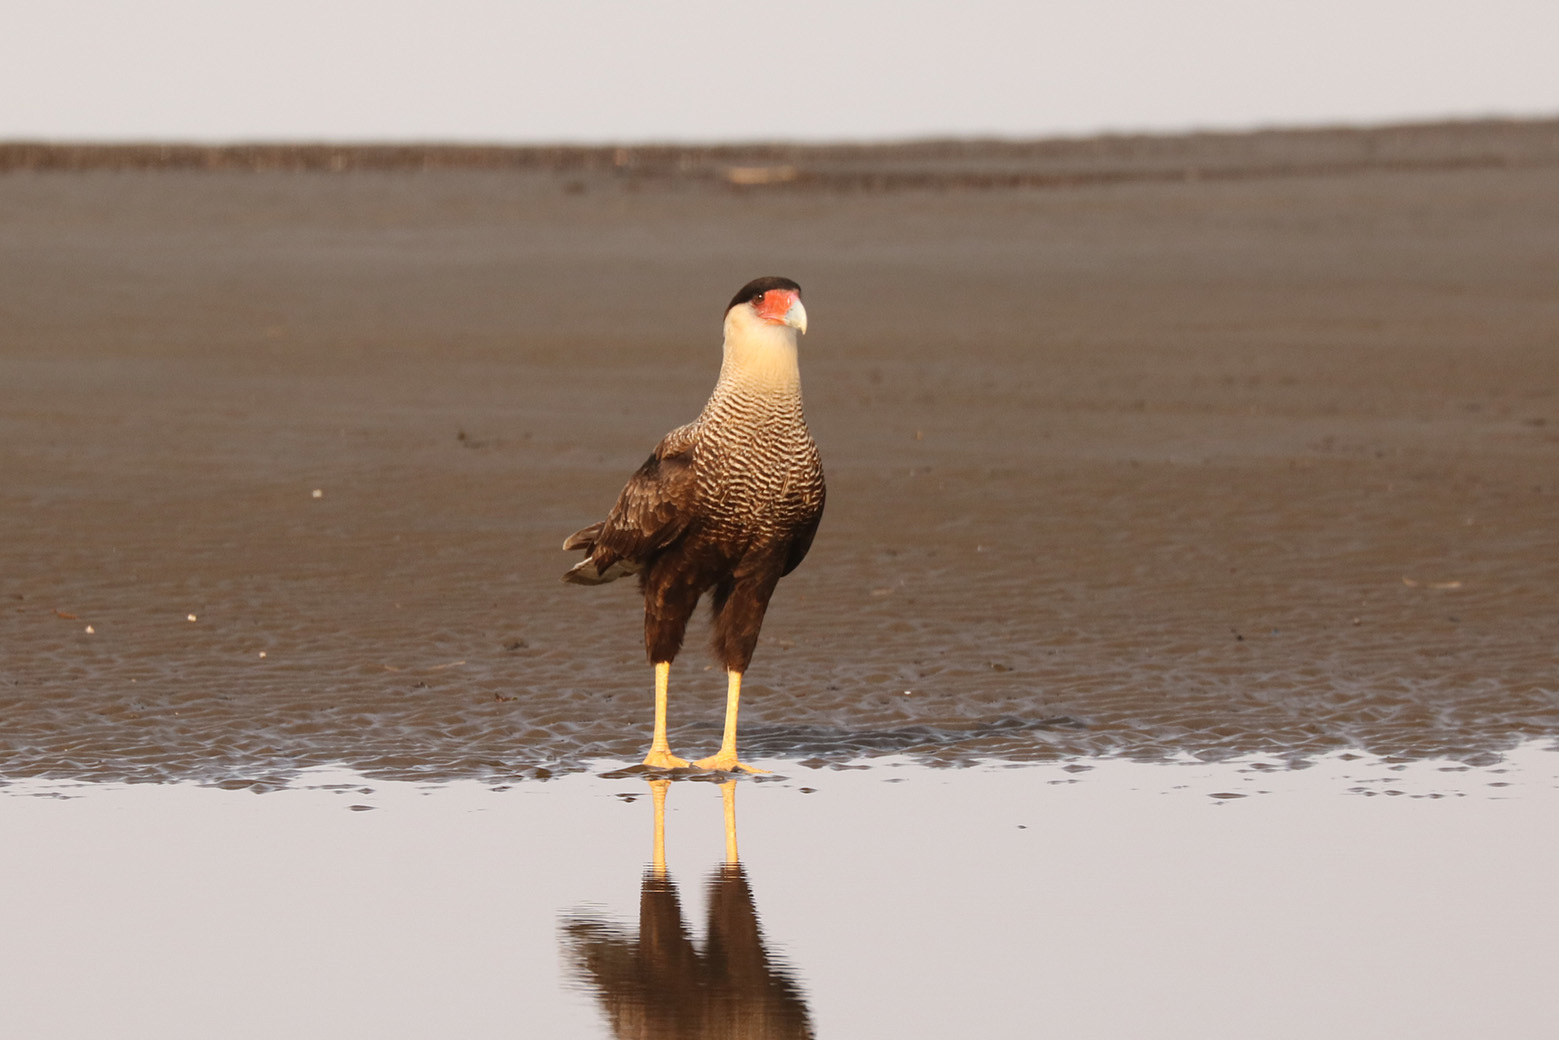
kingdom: Animalia
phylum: Chordata
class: Aves
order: Falconiformes
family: Falconidae
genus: Caracara
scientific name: Caracara plancus
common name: Southern caracara
